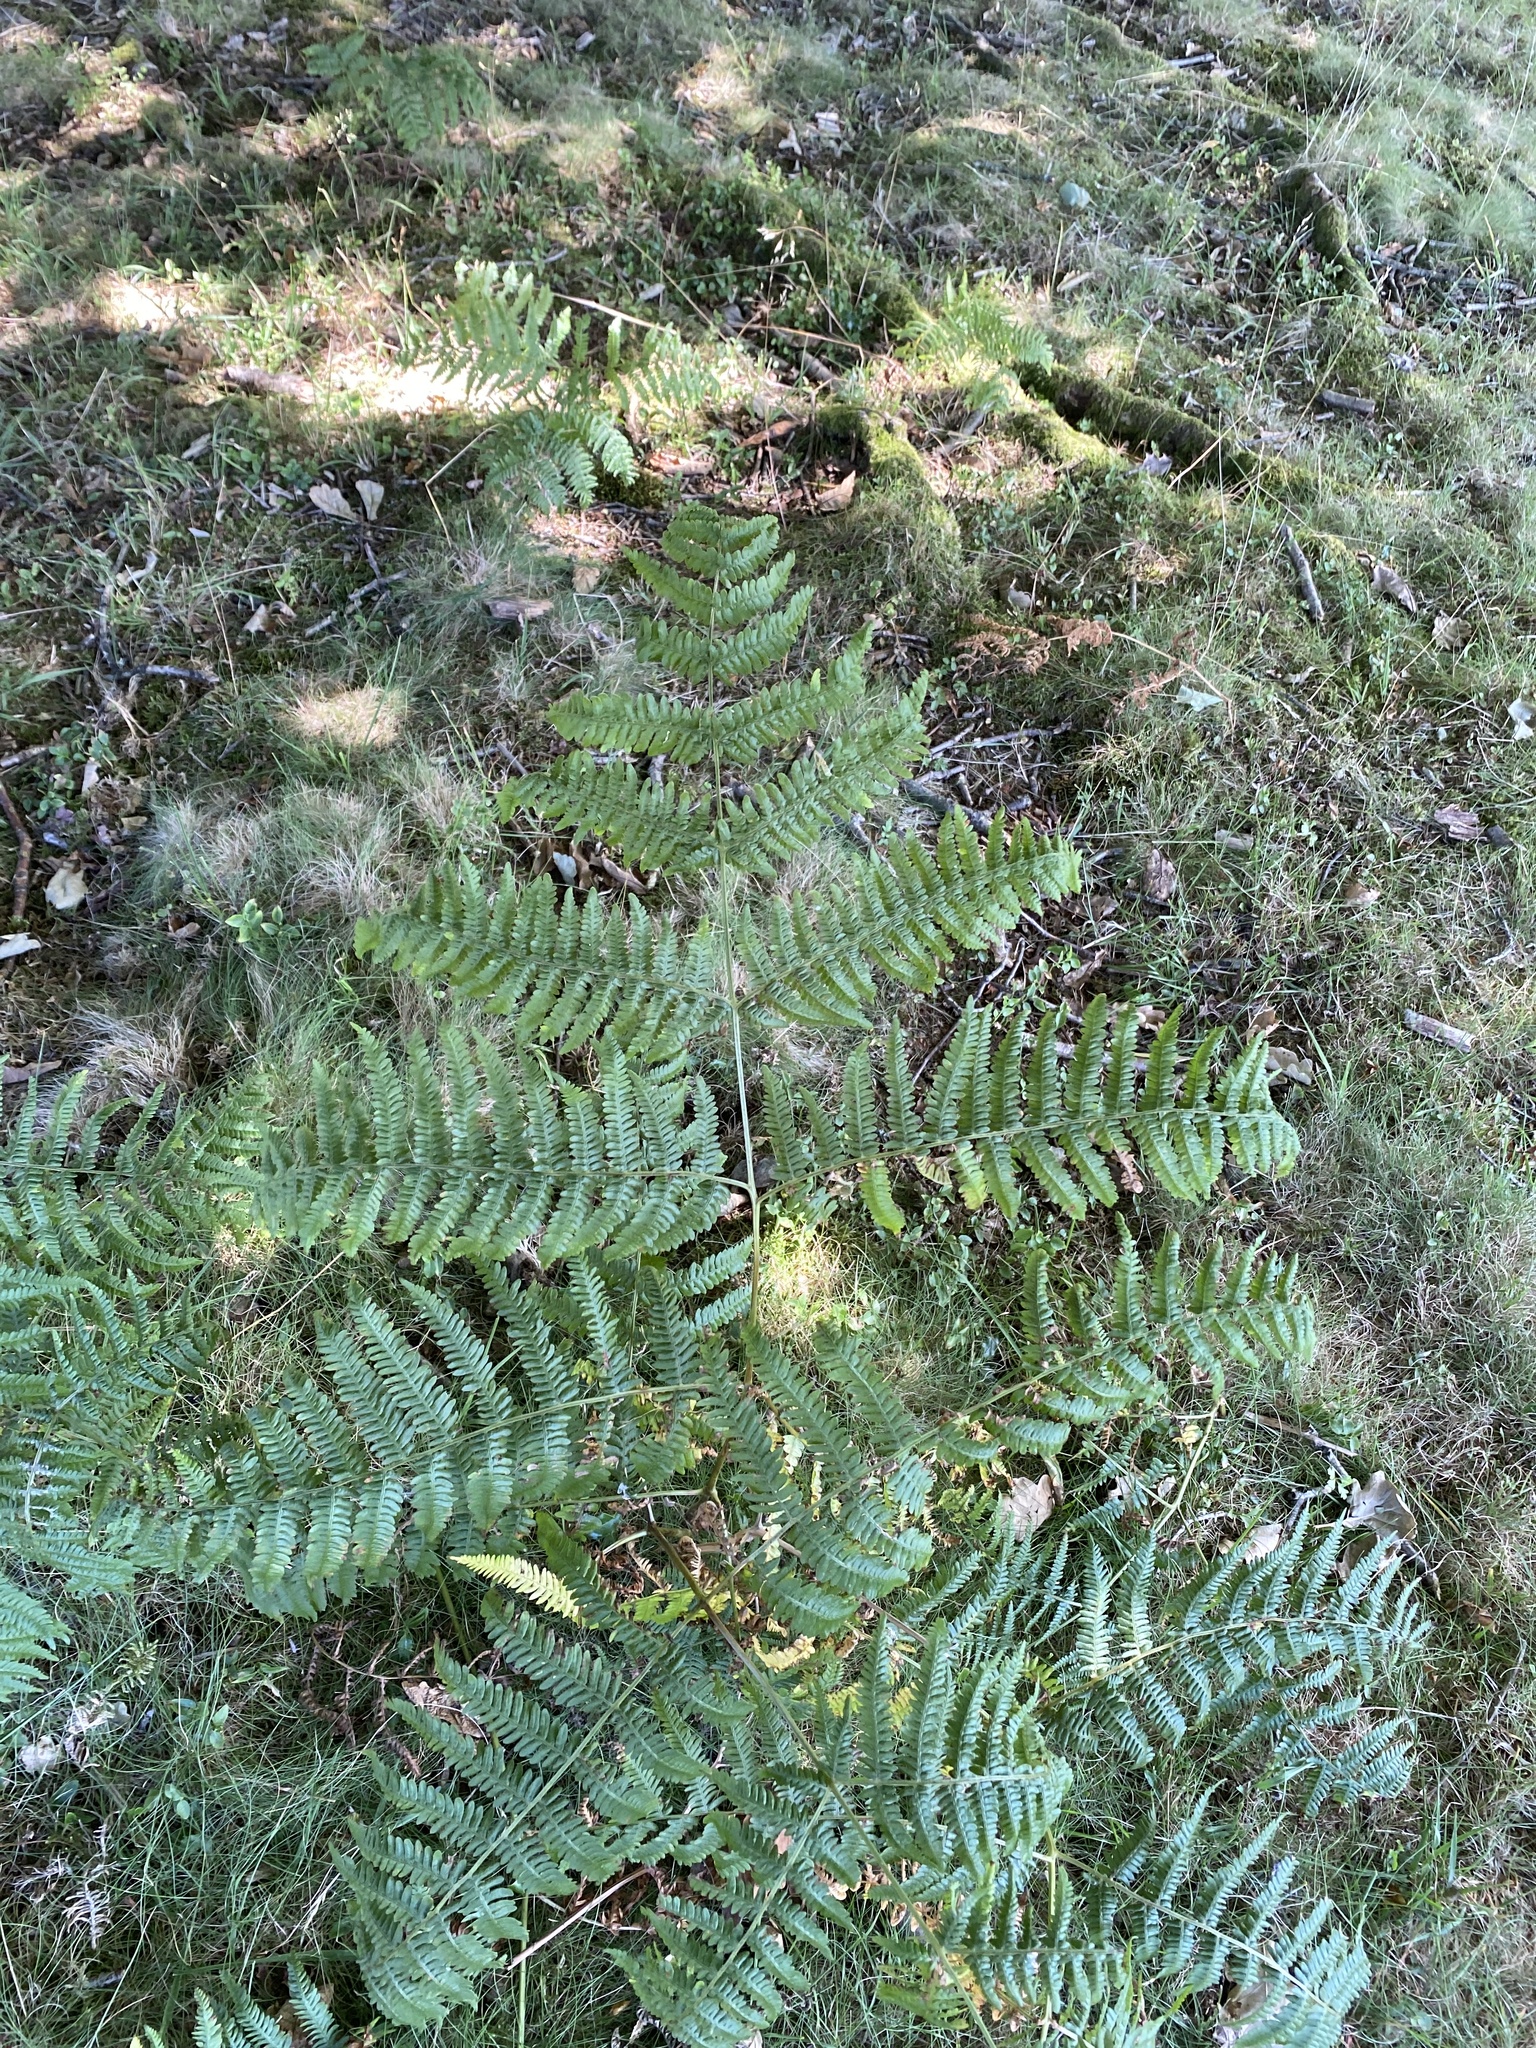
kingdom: Plantae
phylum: Tracheophyta
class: Polypodiopsida
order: Polypodiales
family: Dennstaedtiaceae
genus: Pteridium
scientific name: Pteridium aquilinum
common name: Bracken
